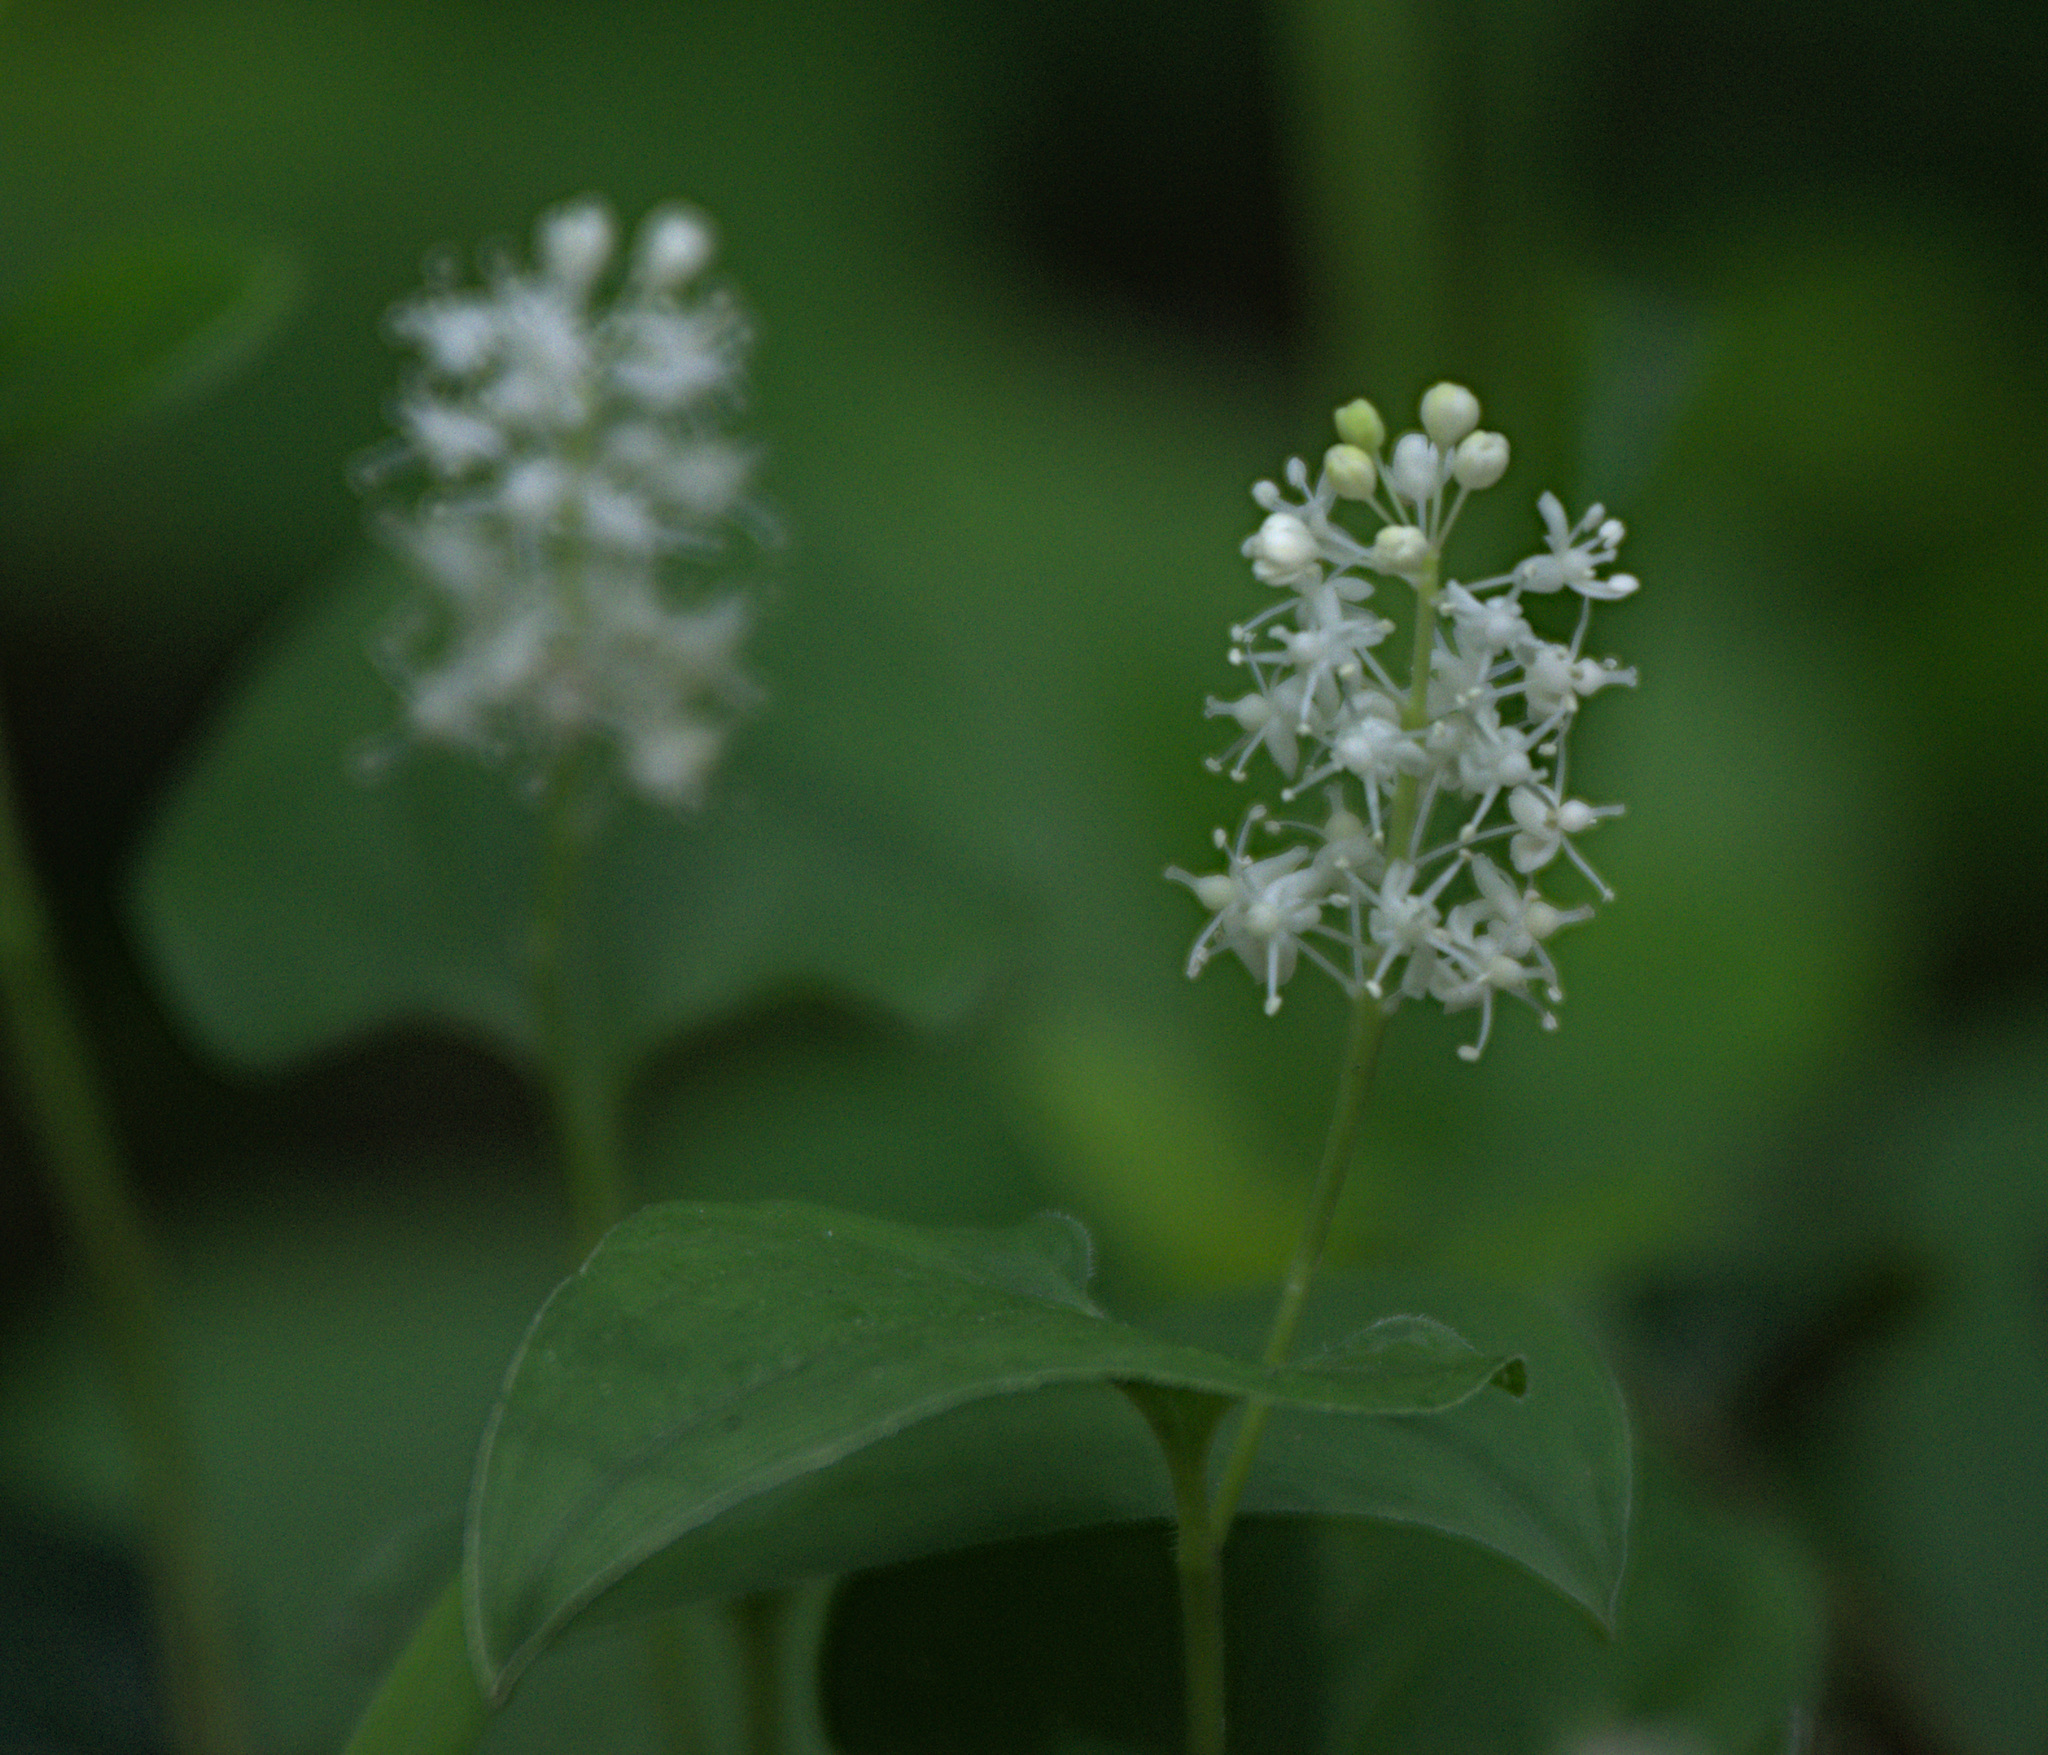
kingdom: Plantae
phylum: Tracheophyta
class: Liliopsida
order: Asparagales
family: Asparagaceae
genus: Maianthemum
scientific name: Maianthemum bifolium
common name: May lily
